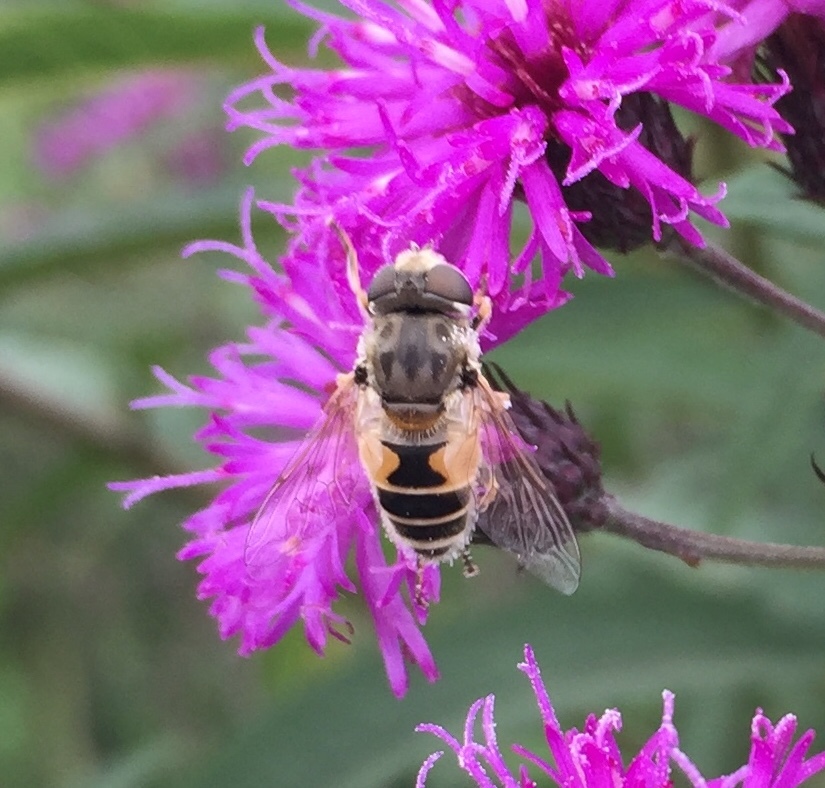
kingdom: Animalia
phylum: Arthropoda
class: Insecta
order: Diptera
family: Syrphidae
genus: Eristalis
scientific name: Eristalis arbustorum
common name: Hover fly
